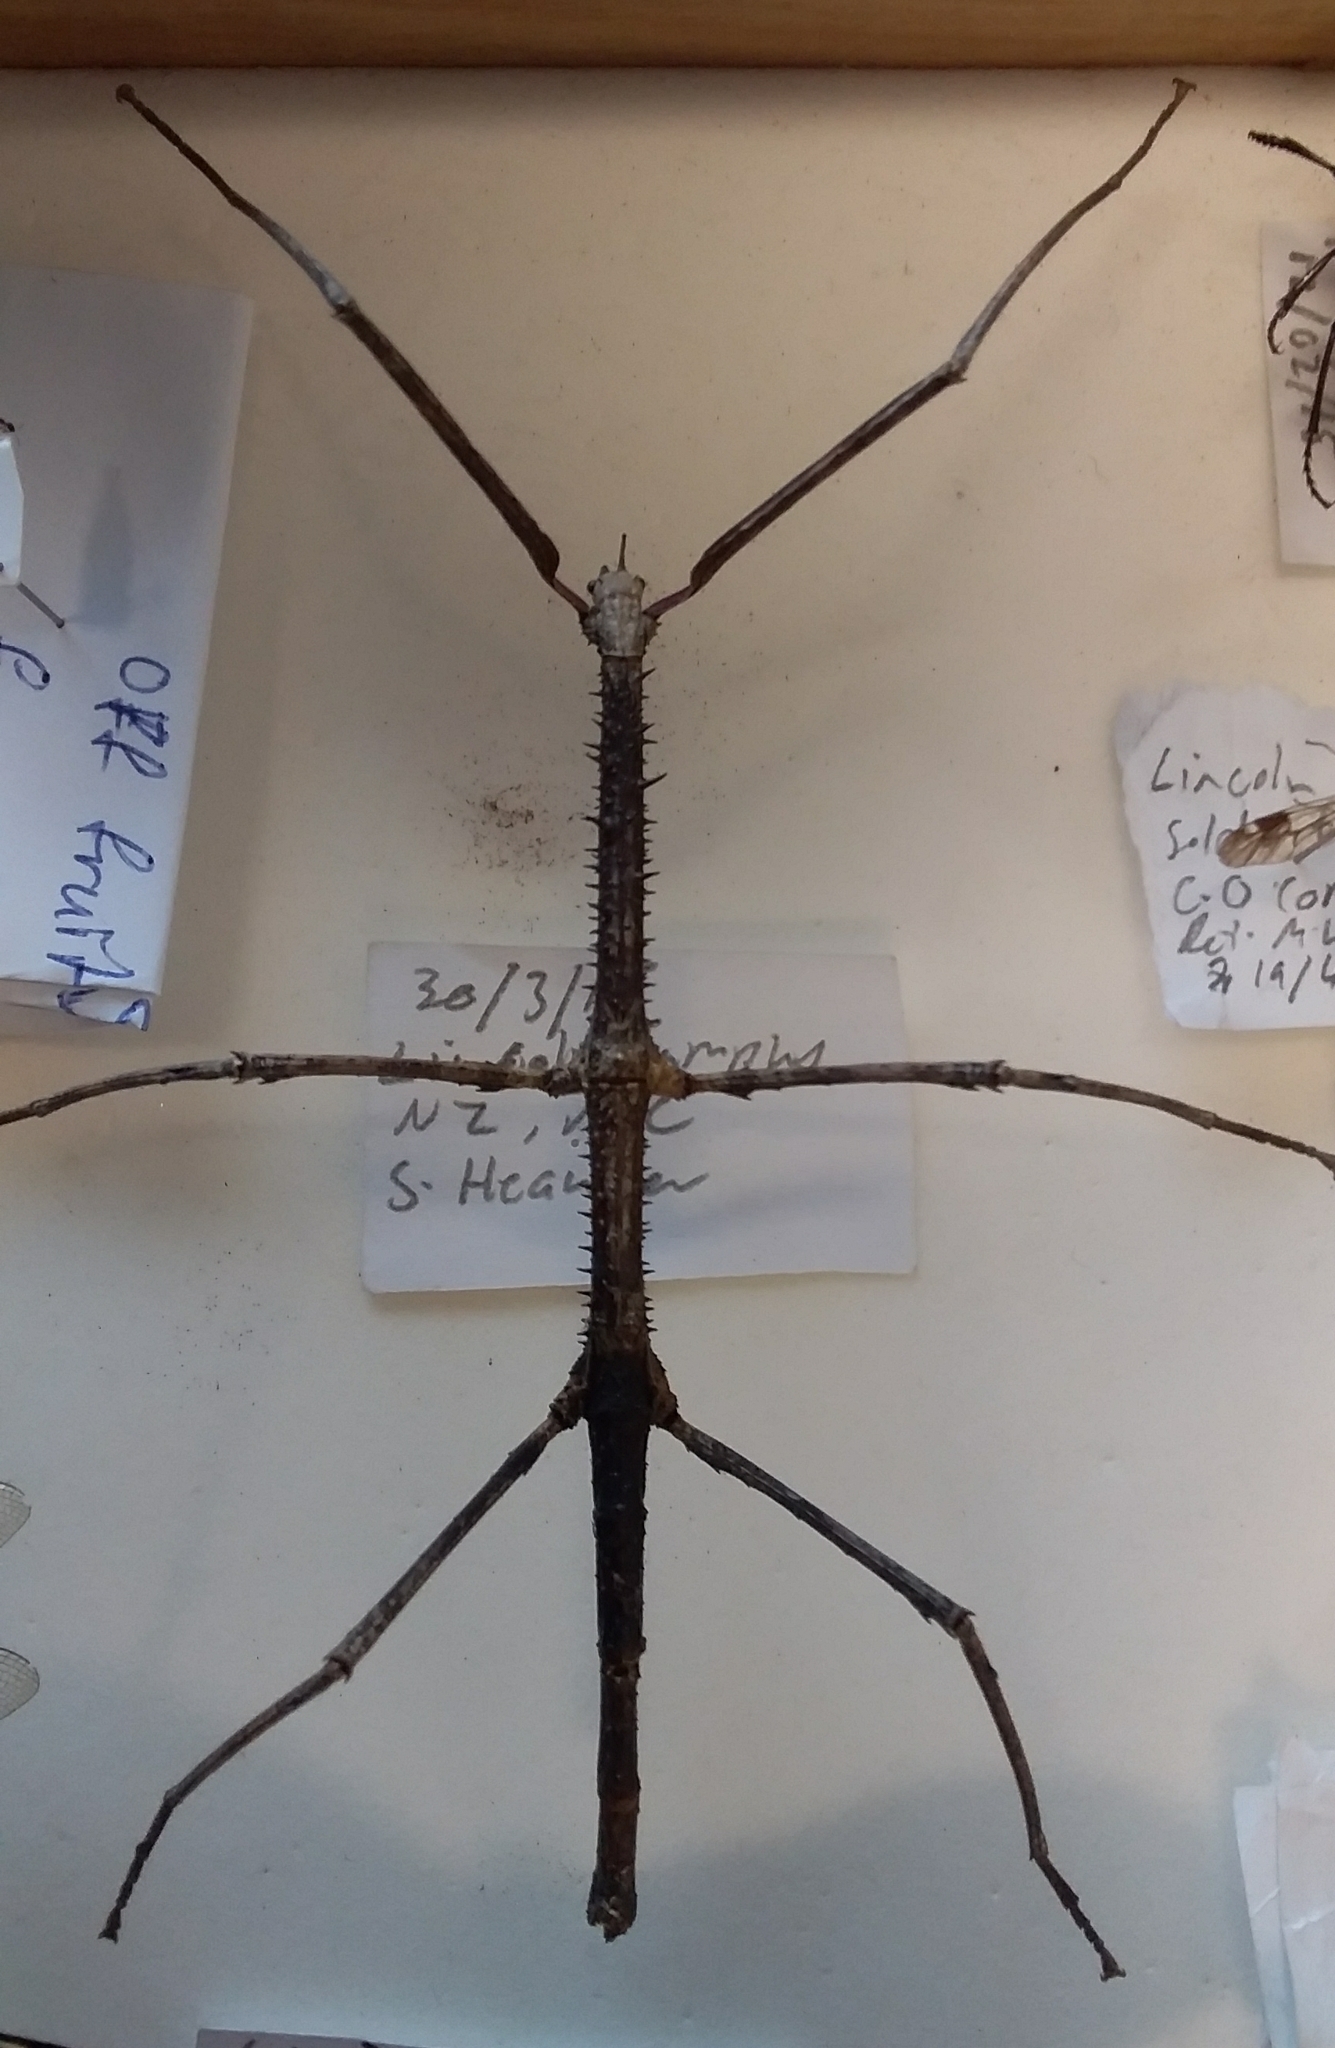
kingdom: Animalia
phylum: Arthropoda
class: Insecta
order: Phasmida
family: Phasmatidae
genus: Argosarchus
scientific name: Argosarchus horridus
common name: Bristly stick insect
